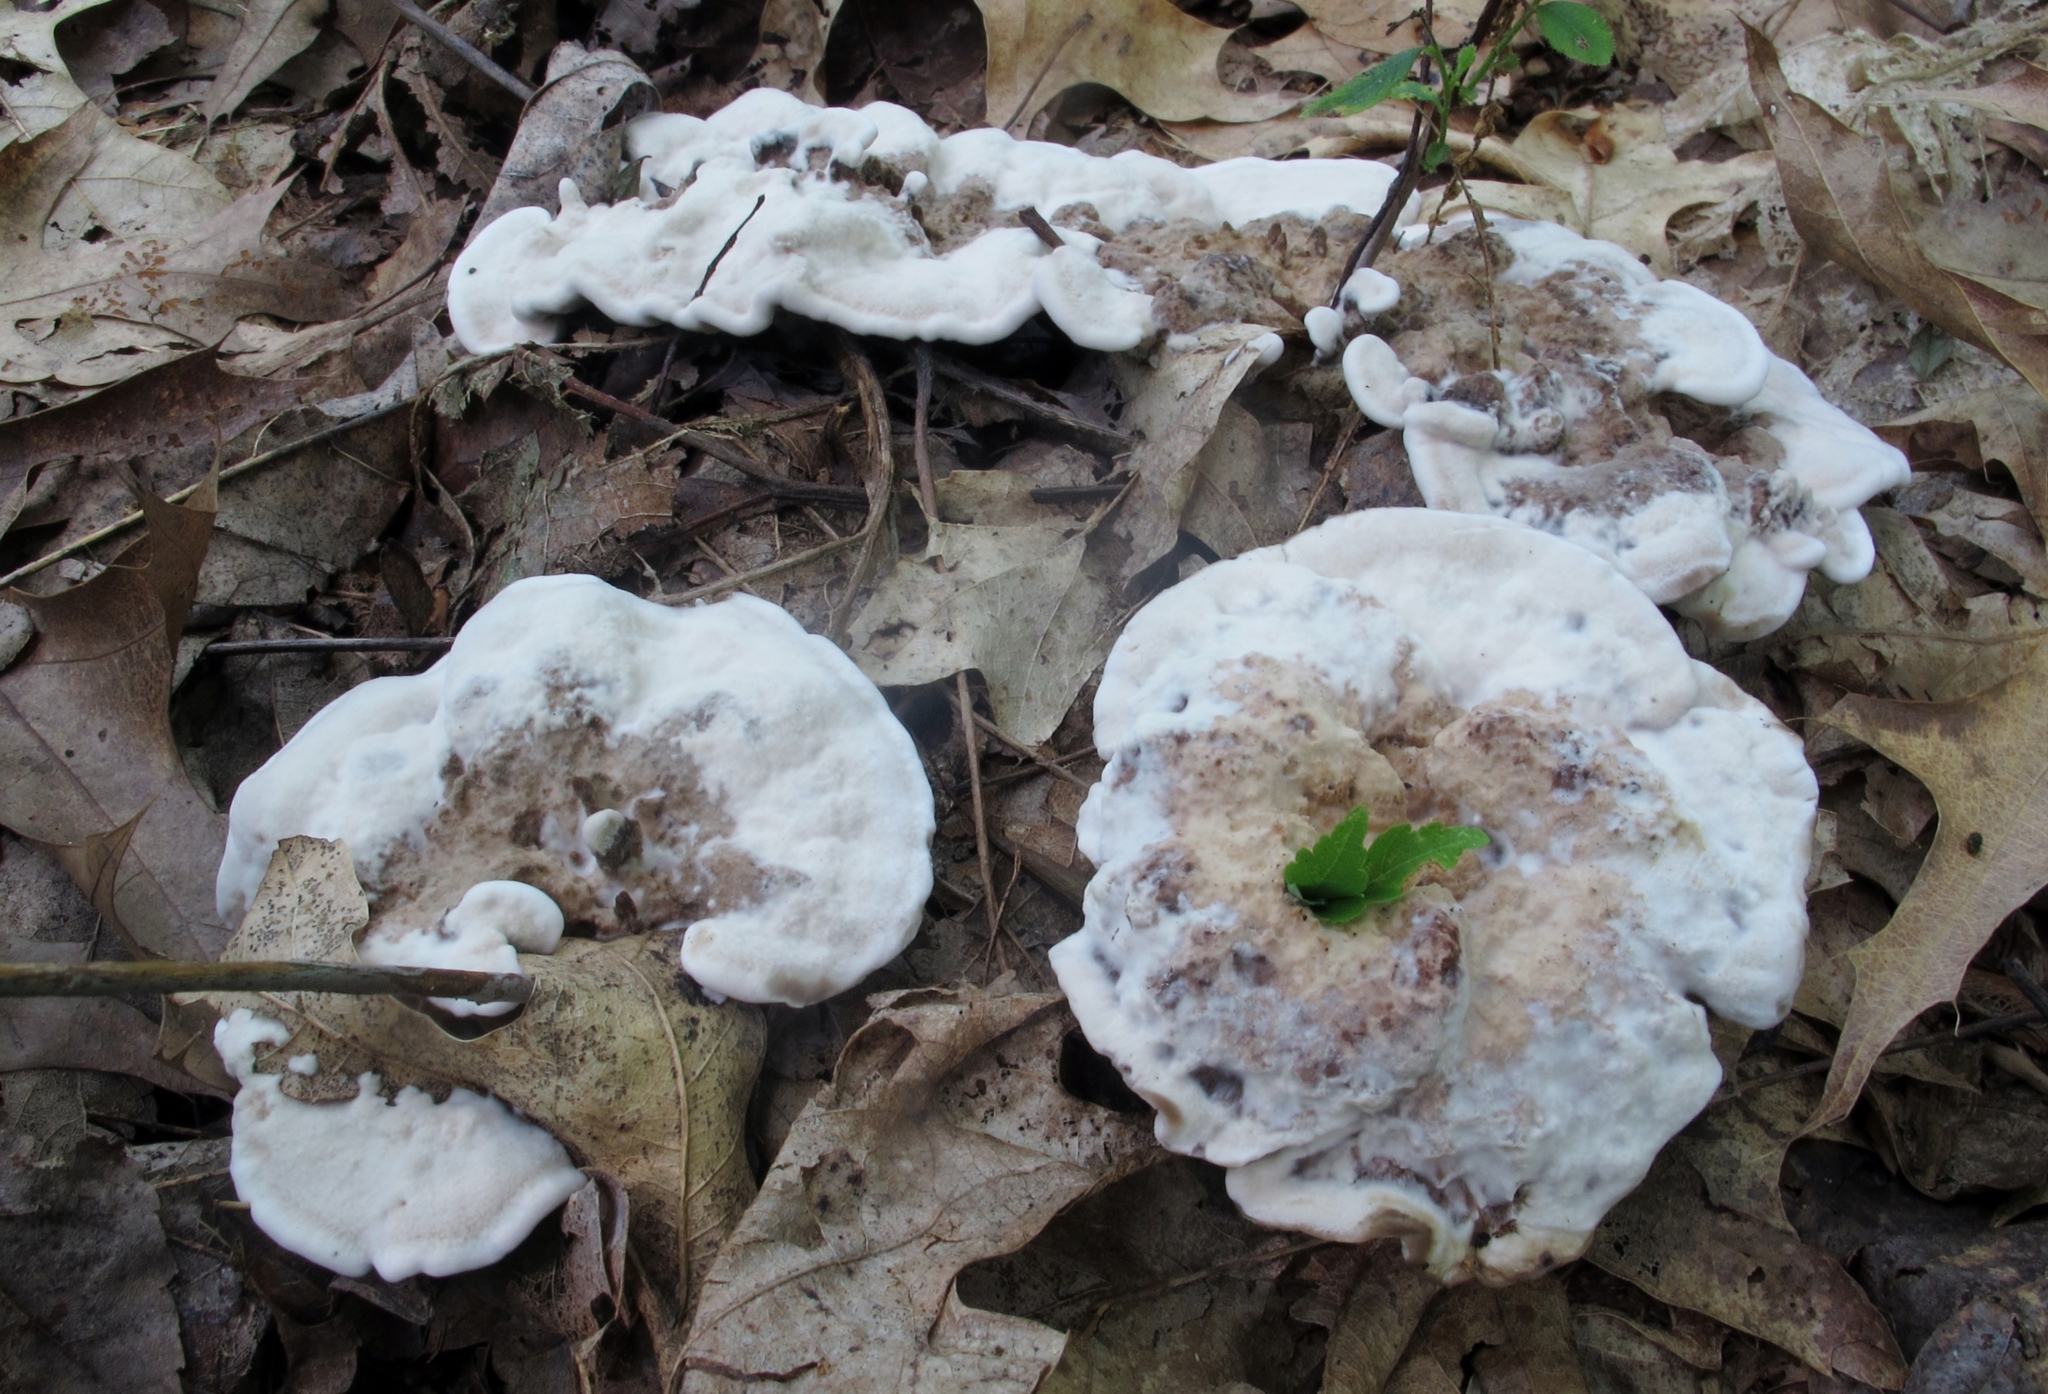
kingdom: Fungi
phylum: Basidiomycota
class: Agaricomycetes
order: Thelephorales
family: Thelephoraceae
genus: Phellodon
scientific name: Phellodon confluens
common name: Fused tooth
